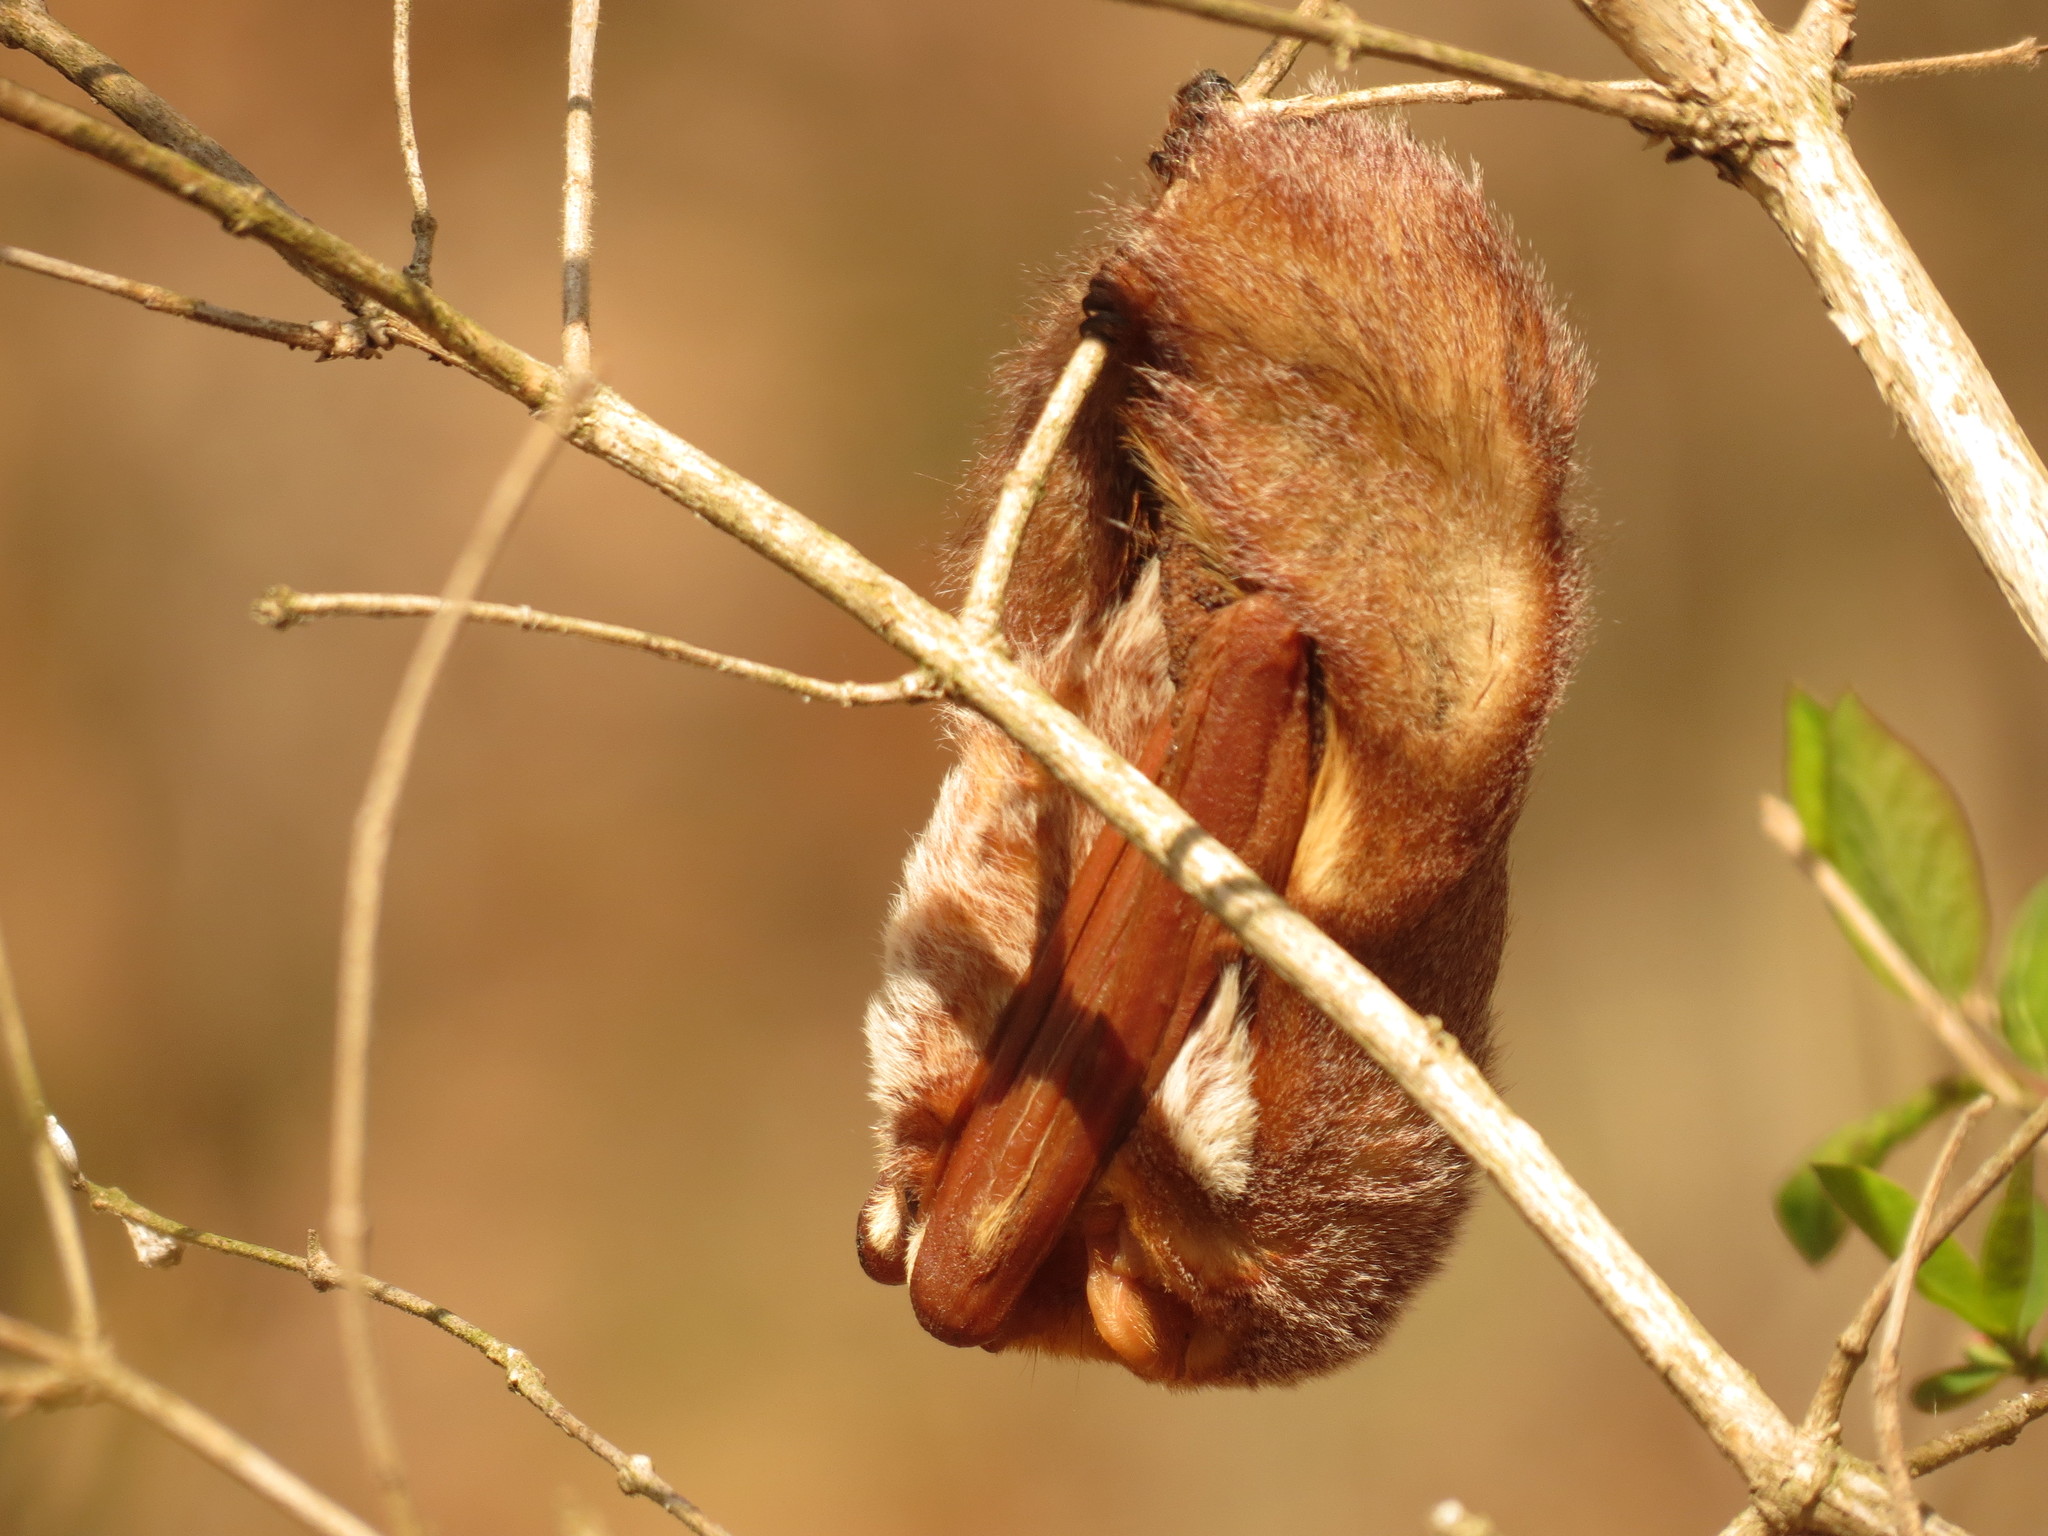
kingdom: Animalia
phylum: Chordata
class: Mammalia
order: Chiroptera
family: Vespertilionidae
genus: Lasiurus
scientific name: Lasiurus borealis
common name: Eastern red bat
